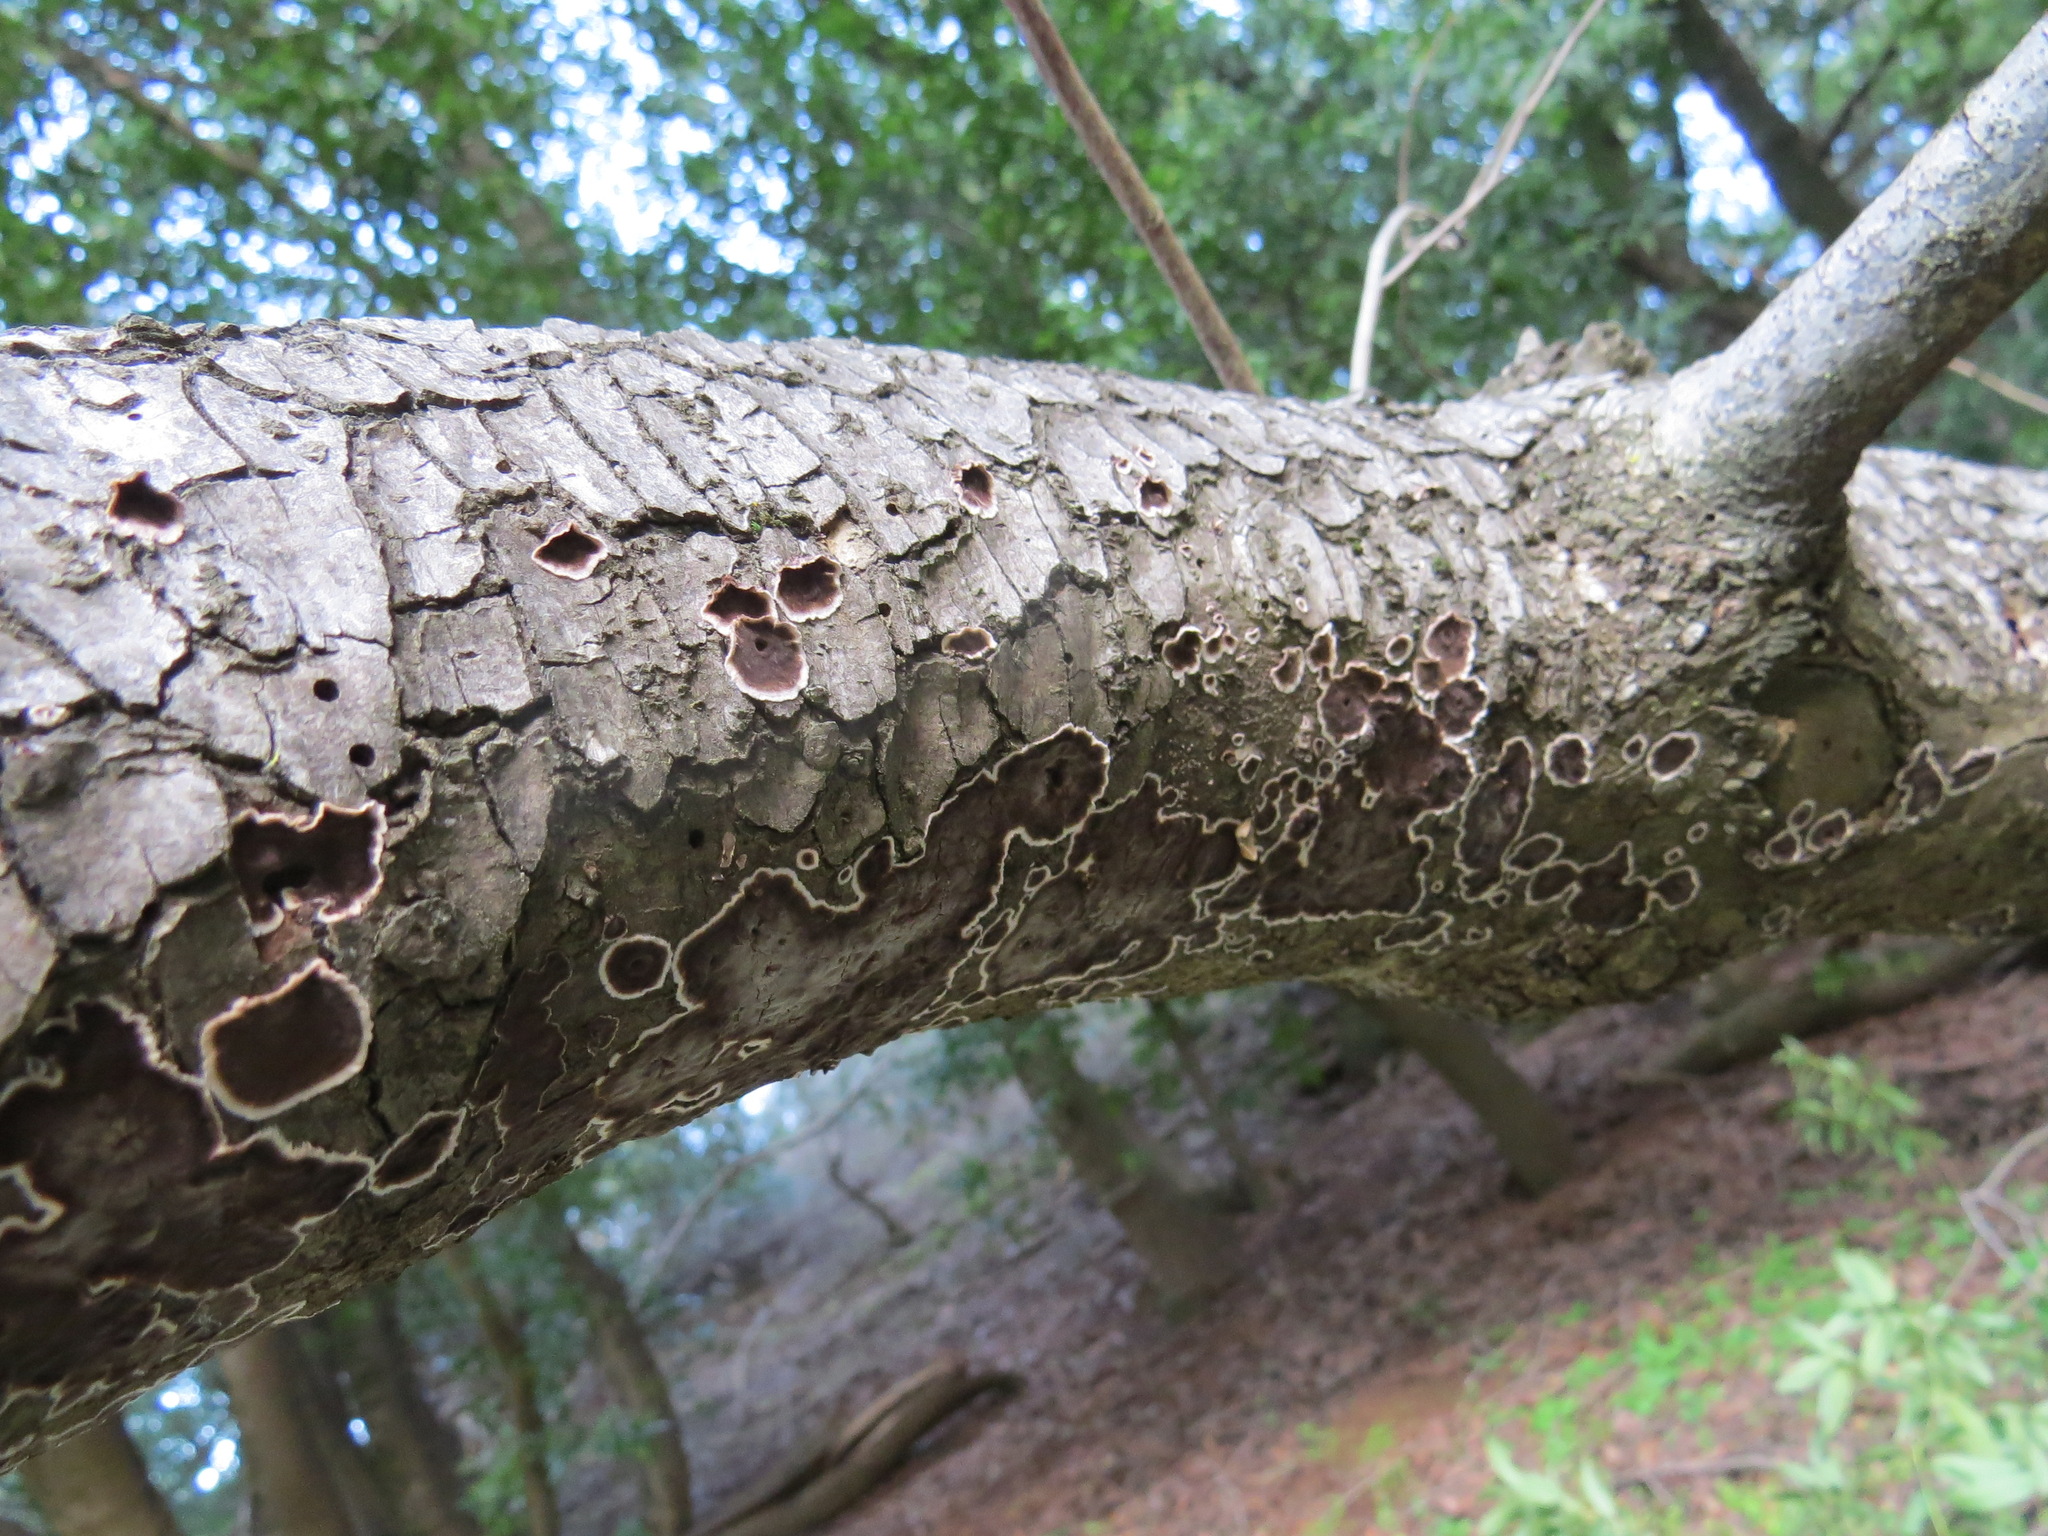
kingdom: Fungi
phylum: Basidiomycota
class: Agaricomycetes
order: Russulales
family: Peniophoraceae
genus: Peniophora
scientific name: Peniophora albobadia
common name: Giraffe spots
